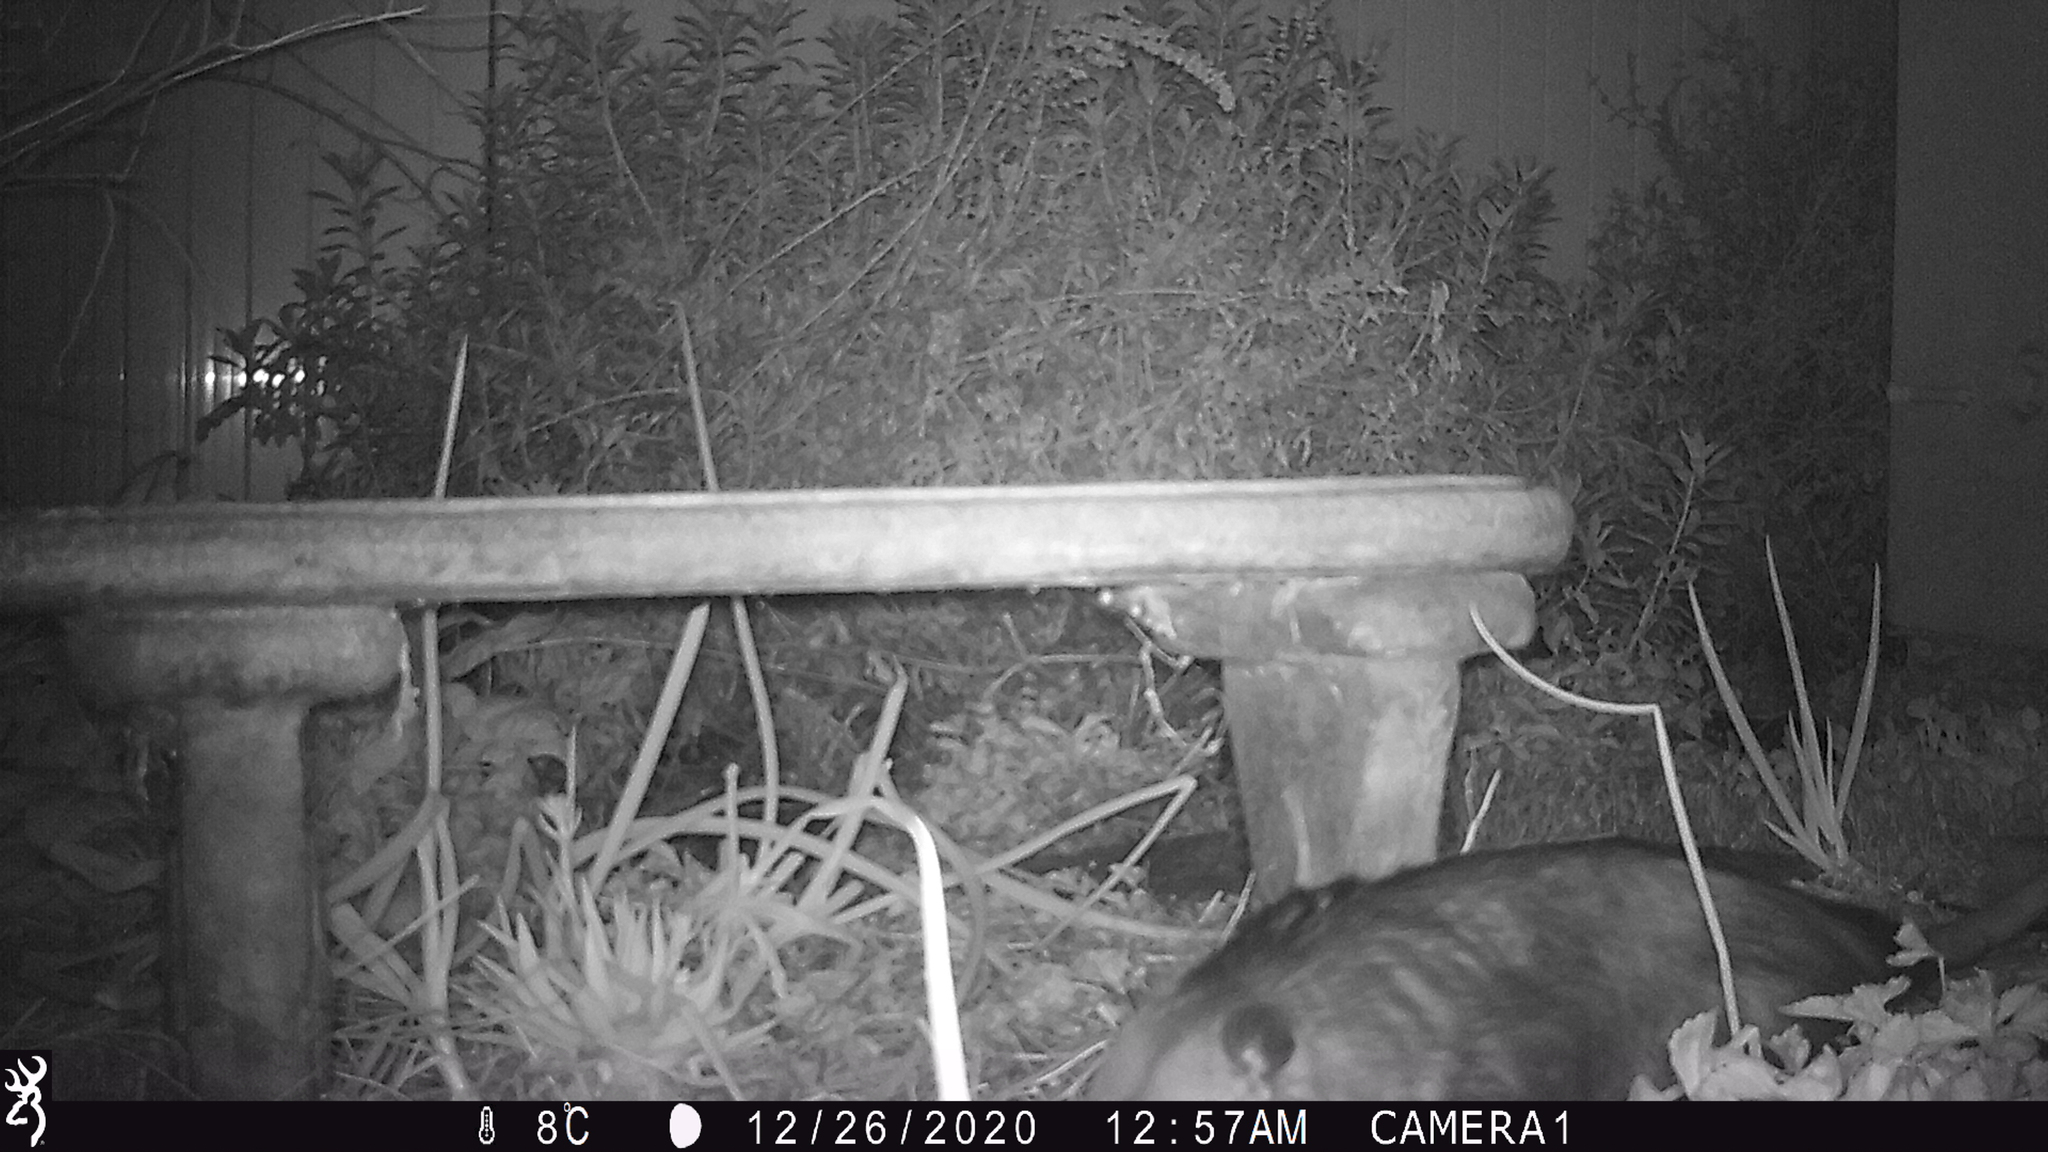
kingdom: Animalia
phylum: Chordata
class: Mammalia
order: Didelphimorphia
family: Didelphidae
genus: Didelphis
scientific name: Didelphis virginiana
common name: Virginia opossum
